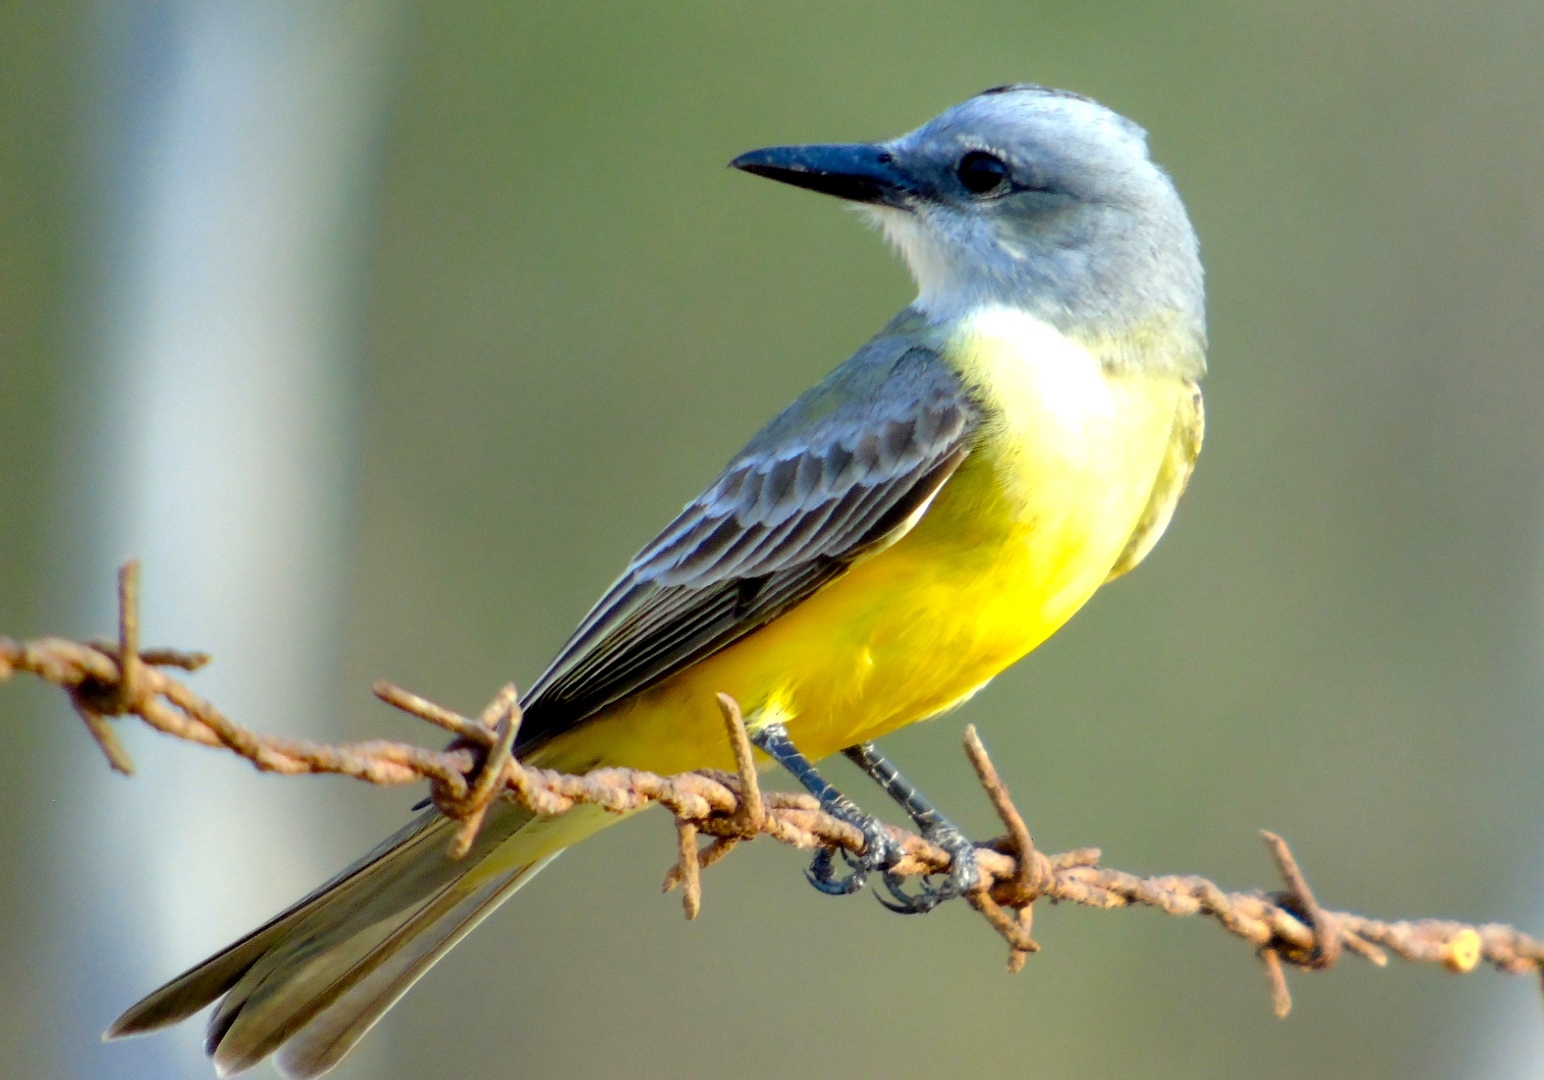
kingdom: Animalia
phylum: Chordata
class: Aves
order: Passeriformes
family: Tyrannidae
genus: Tyrannus
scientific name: Tyrannus melancholicus
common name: Tropical kingbird
